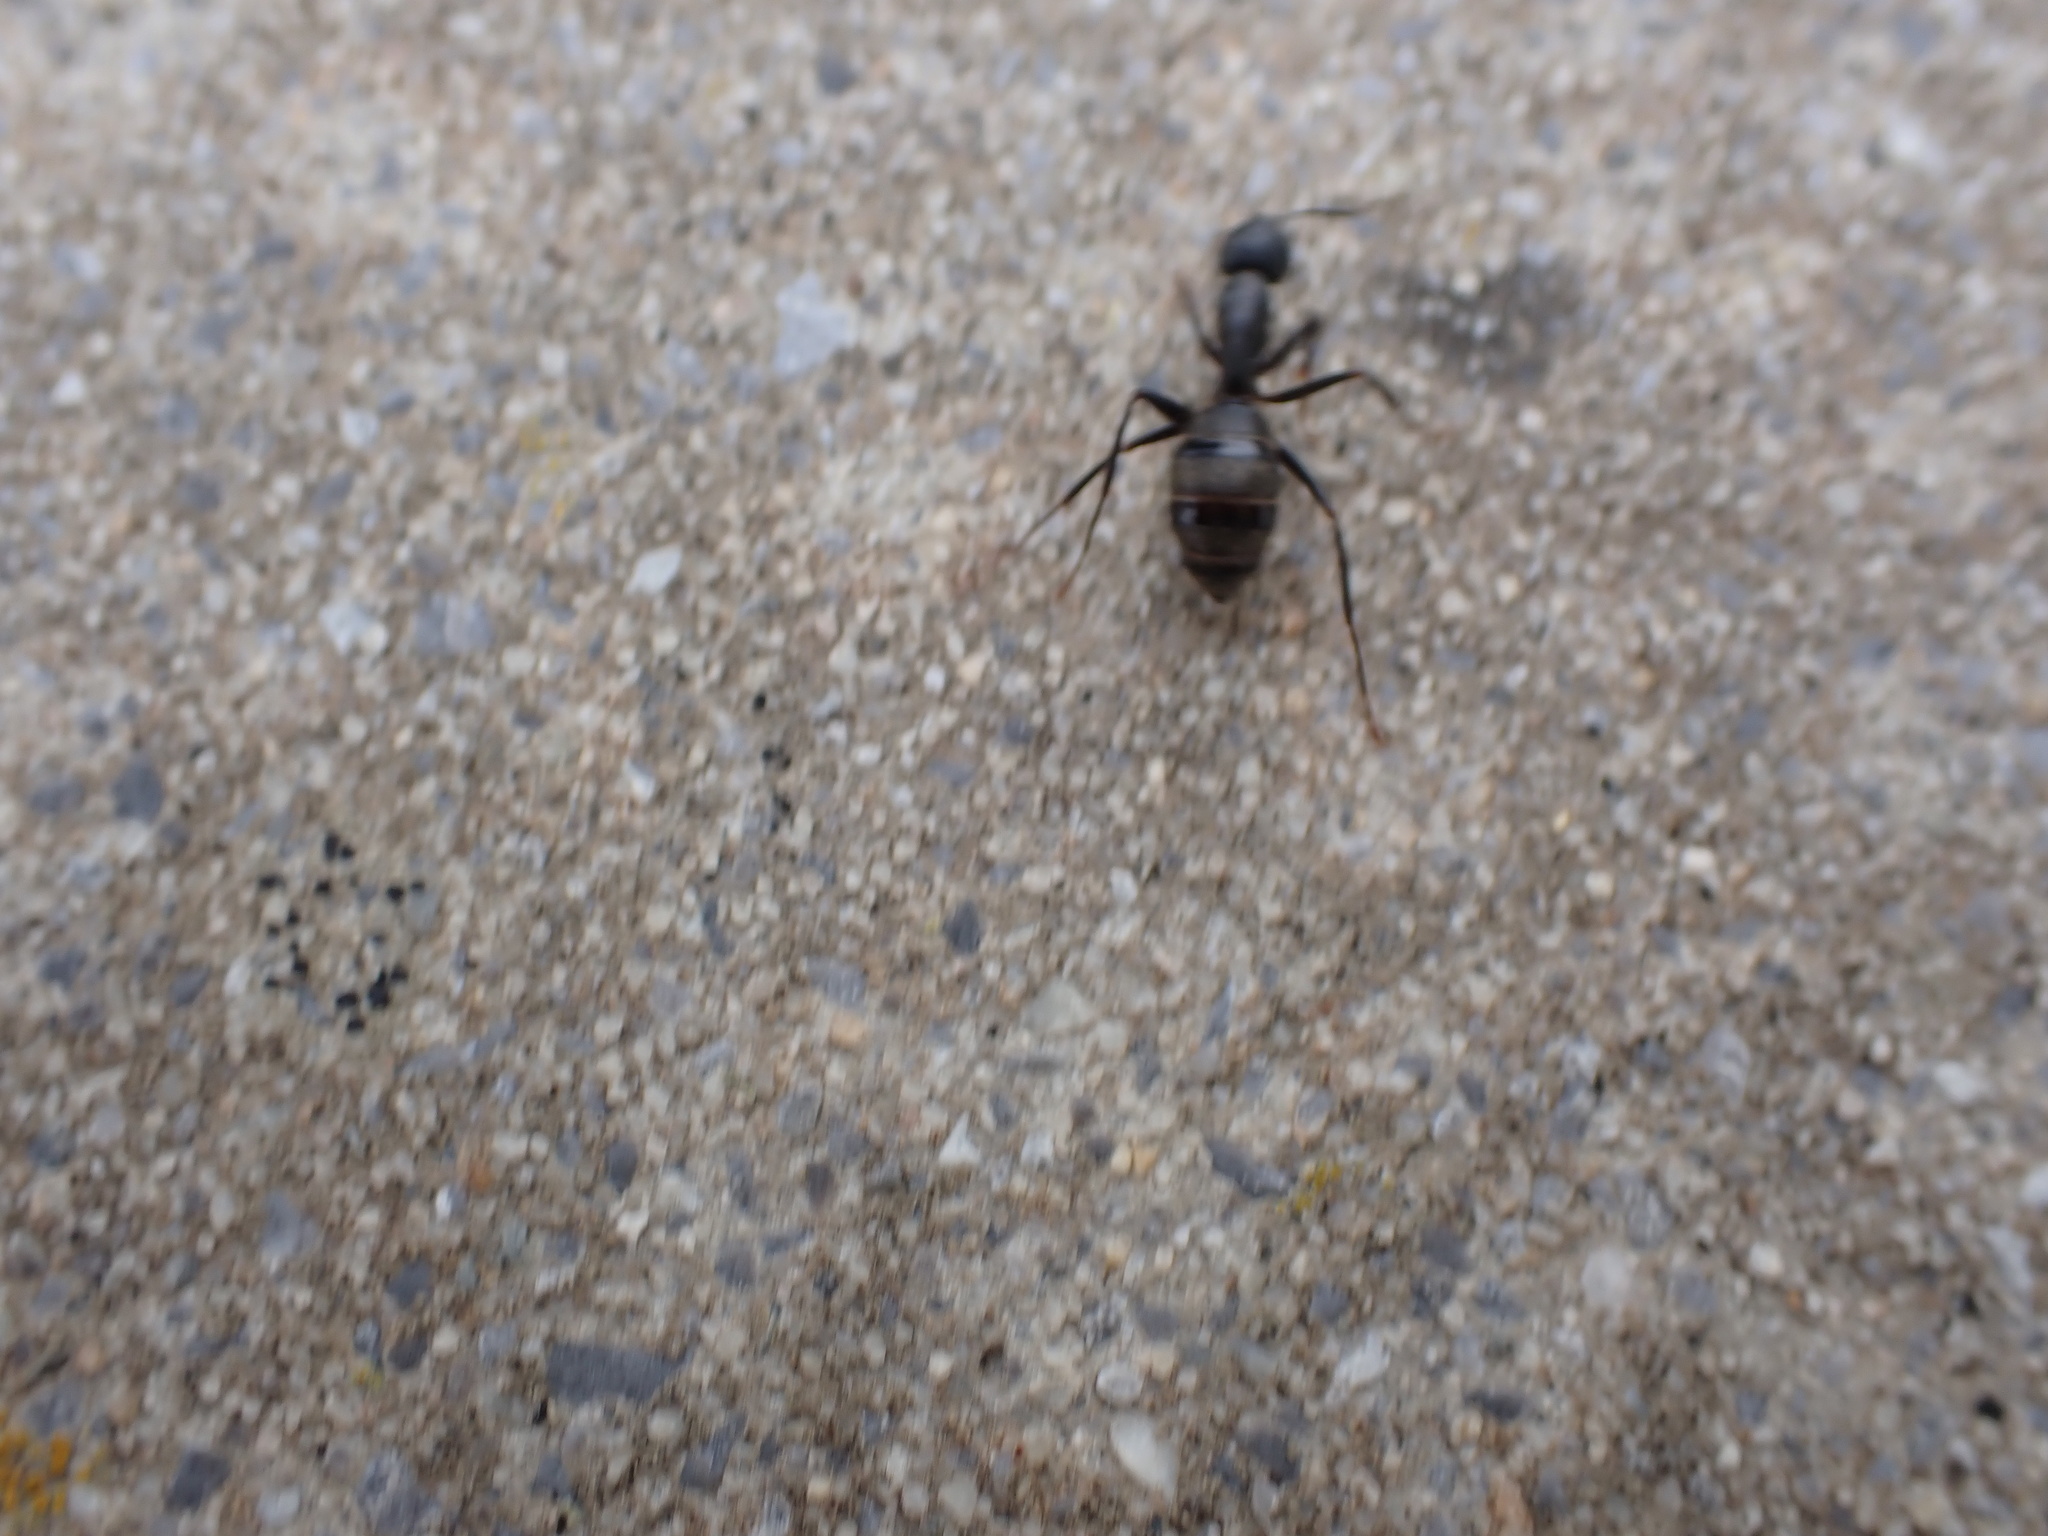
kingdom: Animalia
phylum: Arthropoda
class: Insecta
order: Hymenoptera
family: Formicidae
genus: Camponotus
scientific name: Camponotus pennsylvanicus
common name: Black carpenter ant
